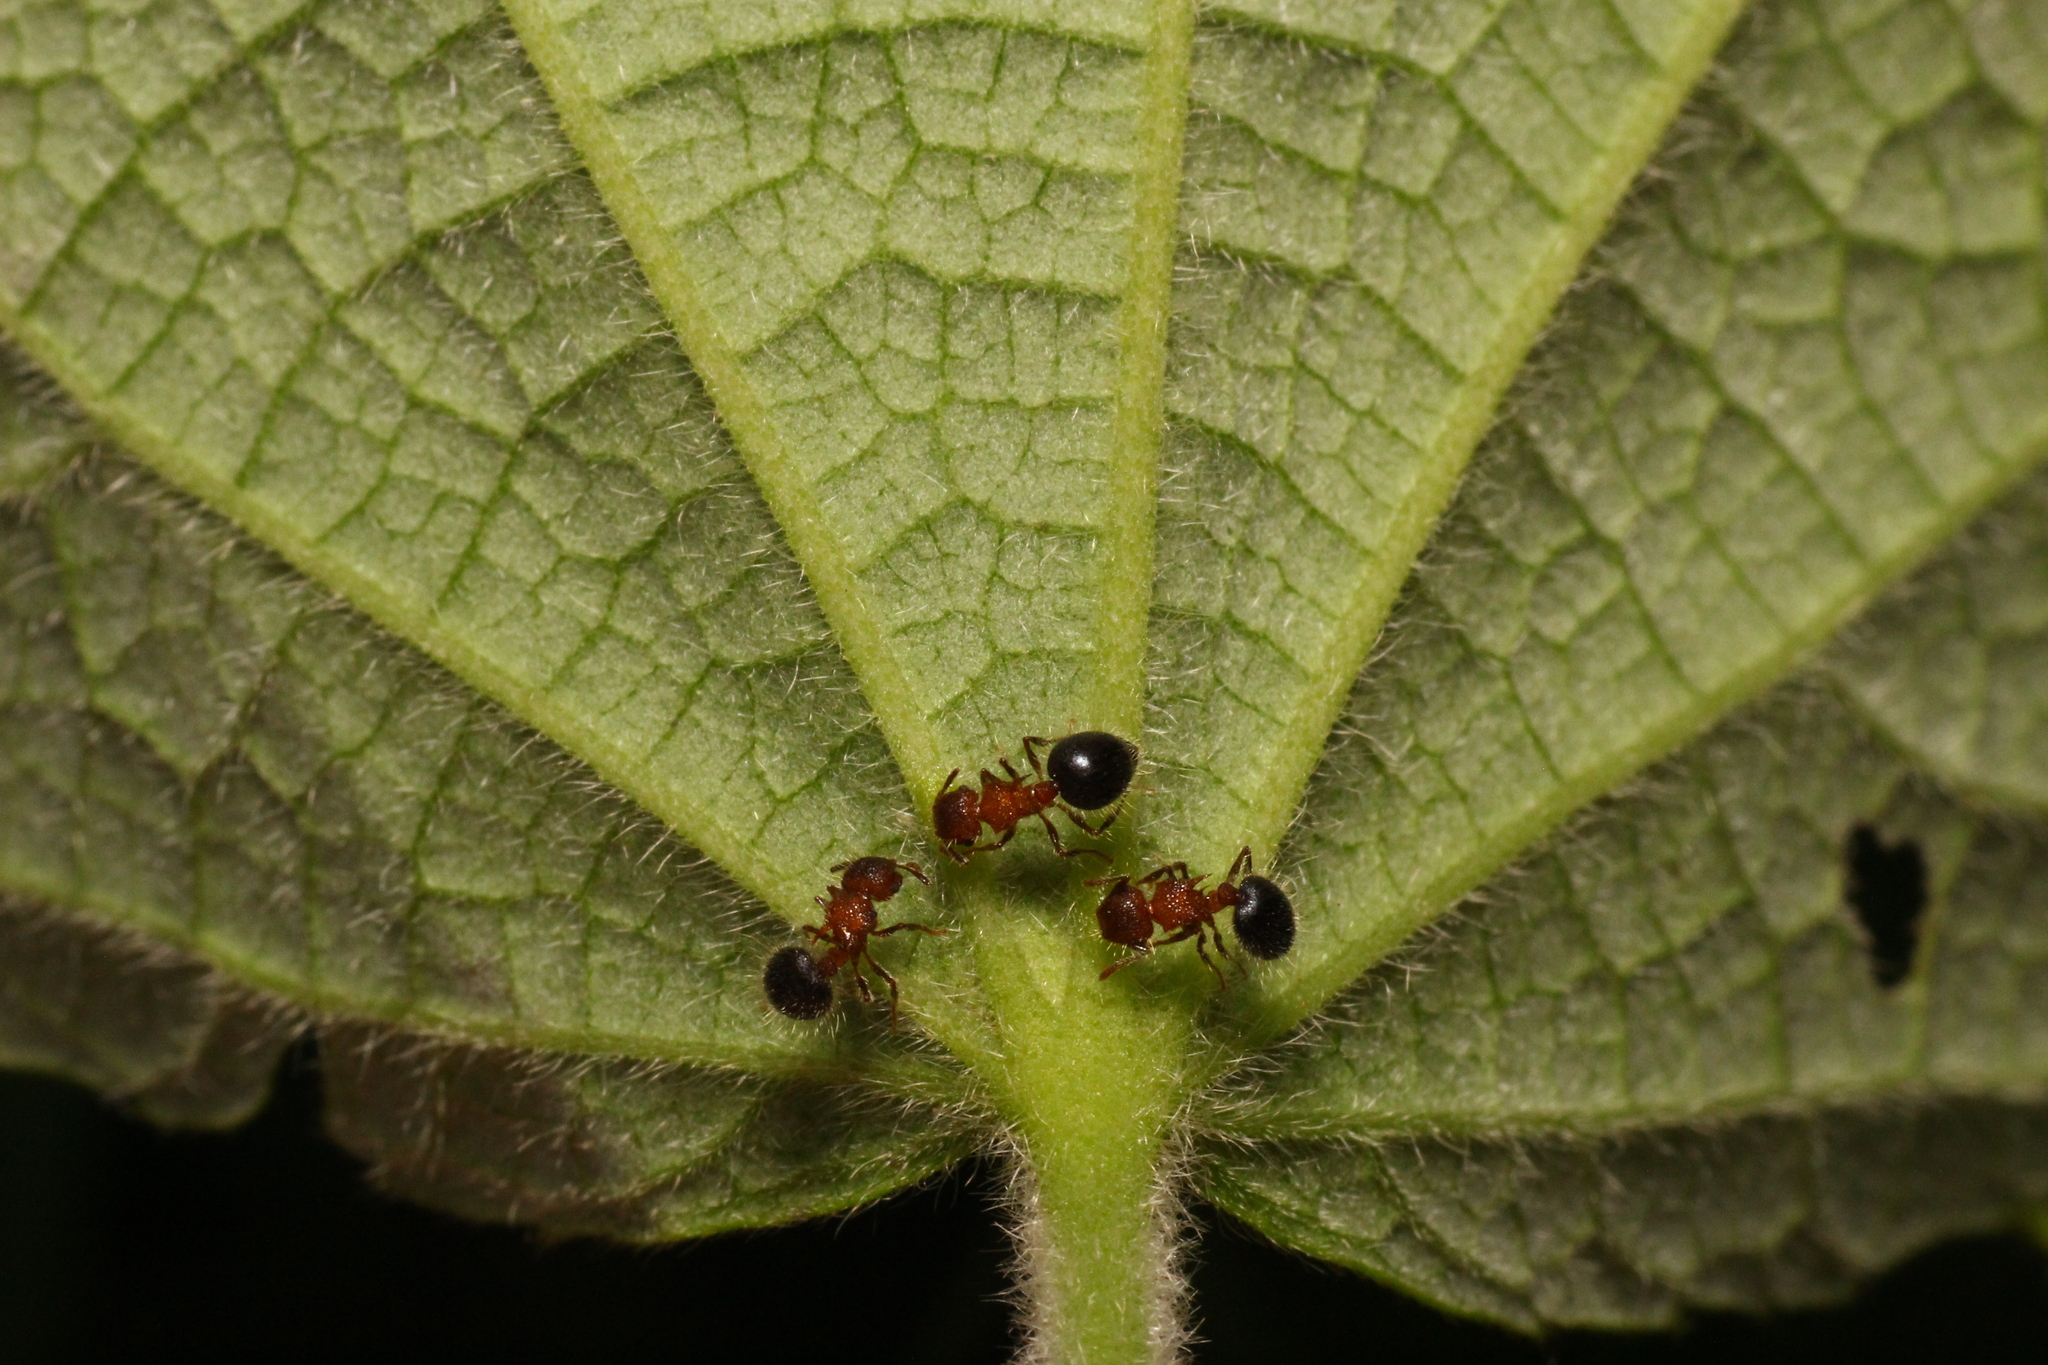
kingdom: Animalia
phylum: Arthropoda
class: Insecta
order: Hymenoptera
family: Formicidae
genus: Meranoplus
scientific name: Meranoplus bicolor
